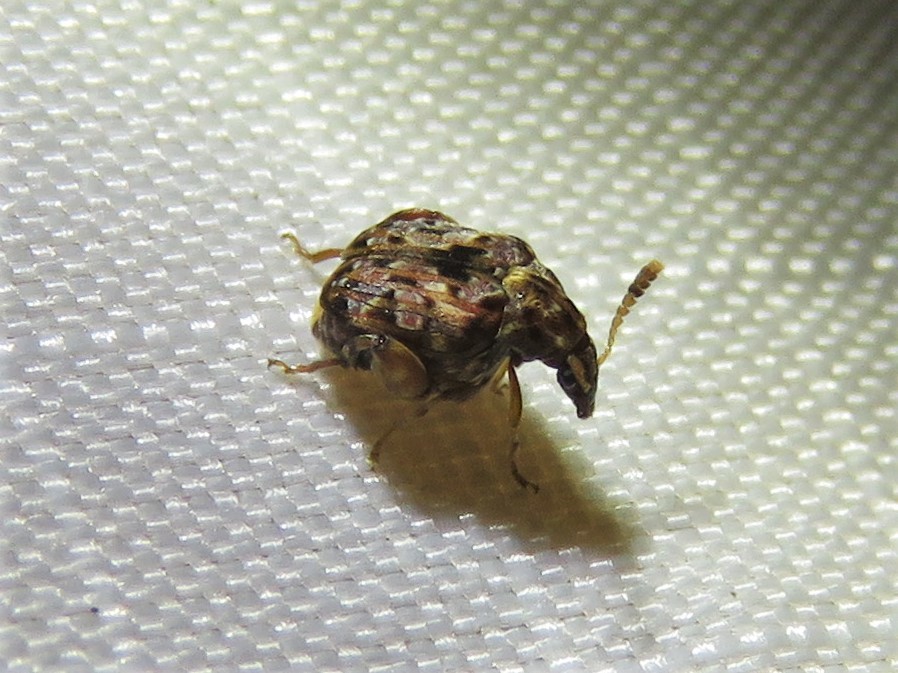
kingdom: Animalia
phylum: Arthropoda
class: Insecta
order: Coleoptera
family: Chrysomelidae
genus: Gibbobruchus
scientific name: Gibbobruchus mimus
